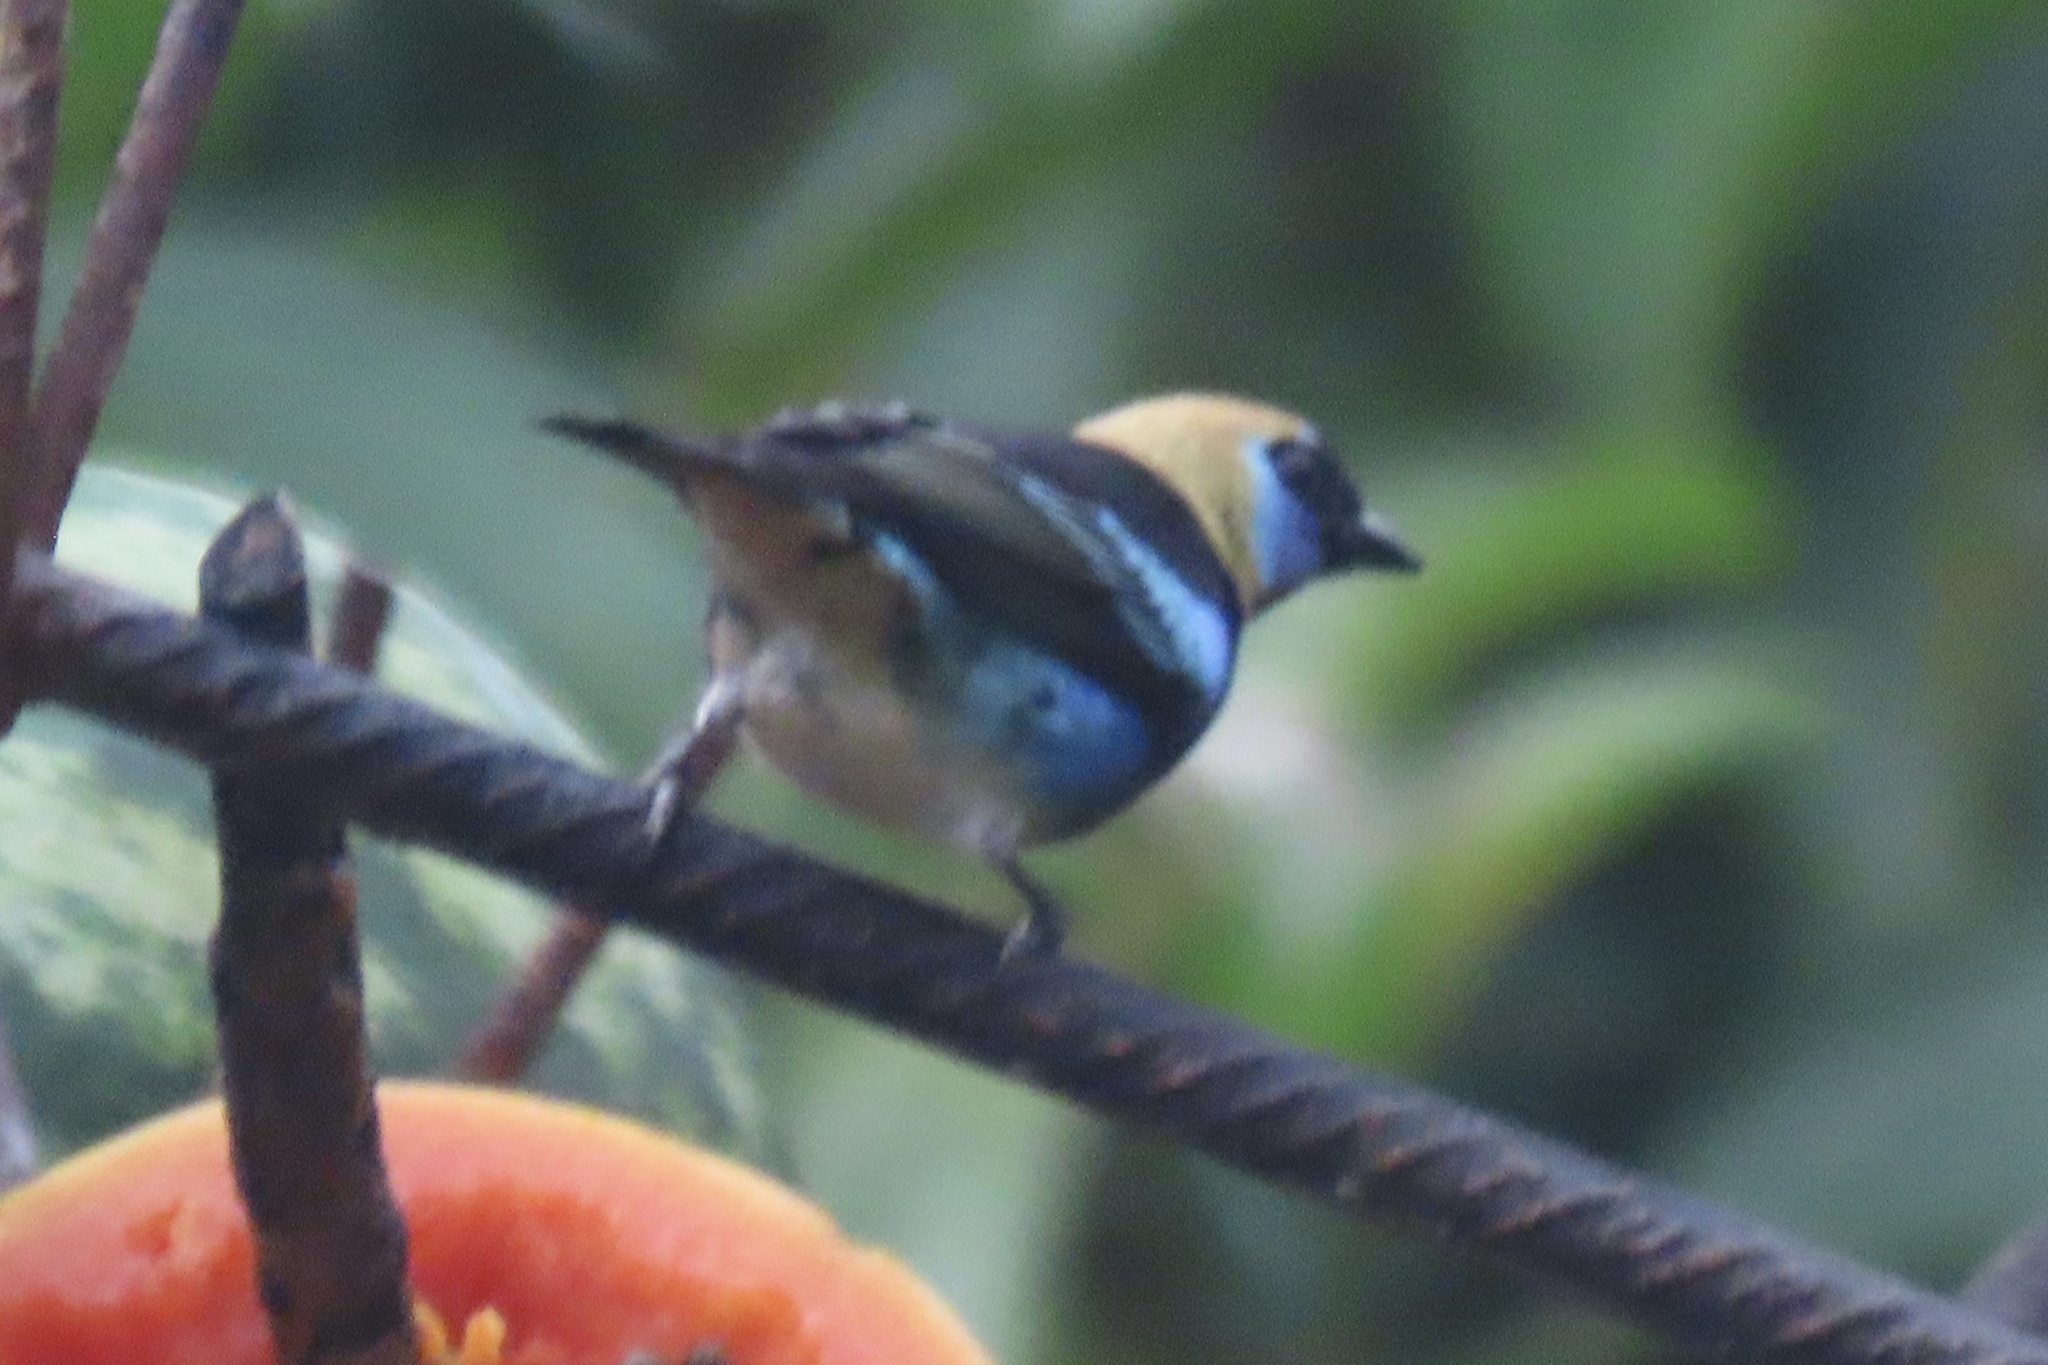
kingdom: Animalia
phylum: Chordata
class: Aves
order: Passeriformes
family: Thraupidae
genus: Stilpnia
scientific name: Stilpnia larvata
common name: Golden-hooded tanager
